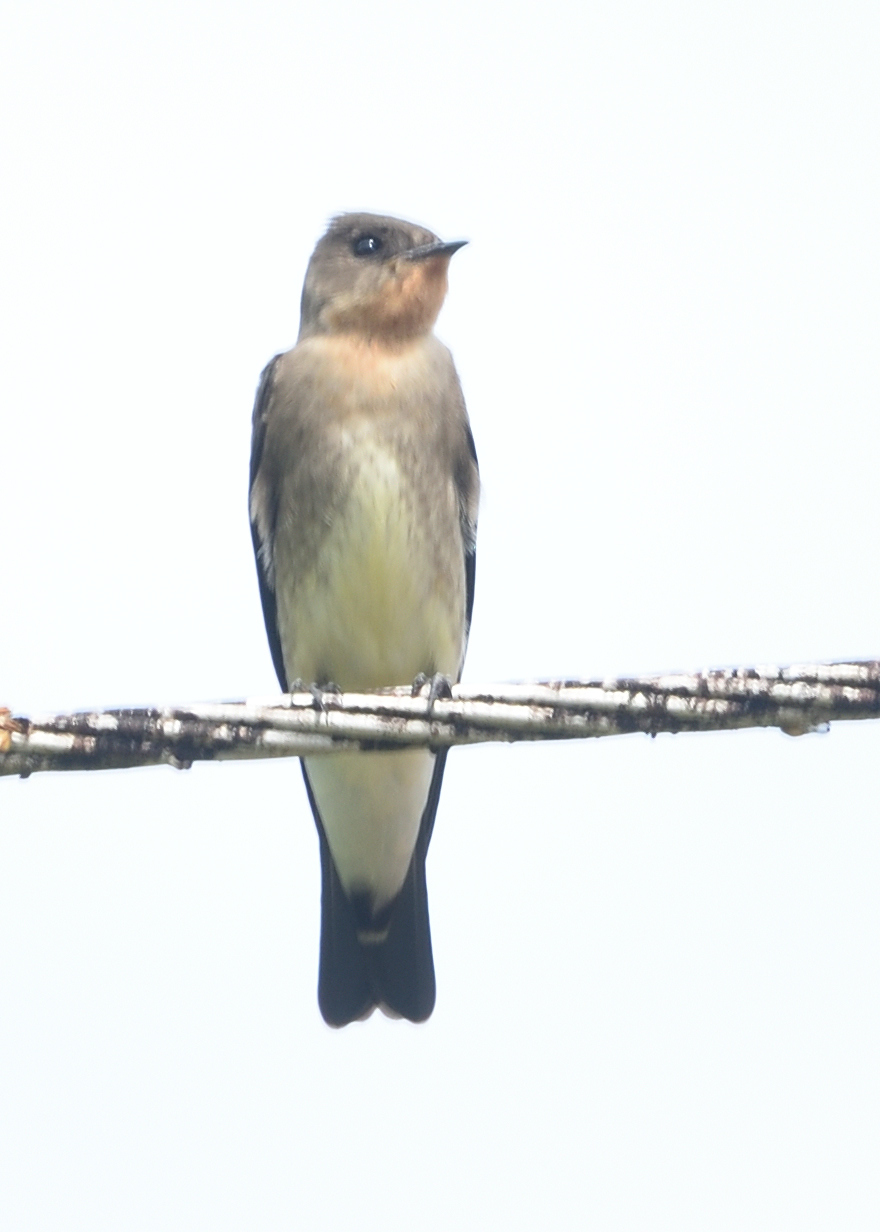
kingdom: Animalia
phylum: Chordata
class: Aves
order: Passeriformes
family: Hirundinidae
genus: Stelgidopteryx
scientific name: Stelgidopteryx ruficollis
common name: Southern rough-winged swallow
